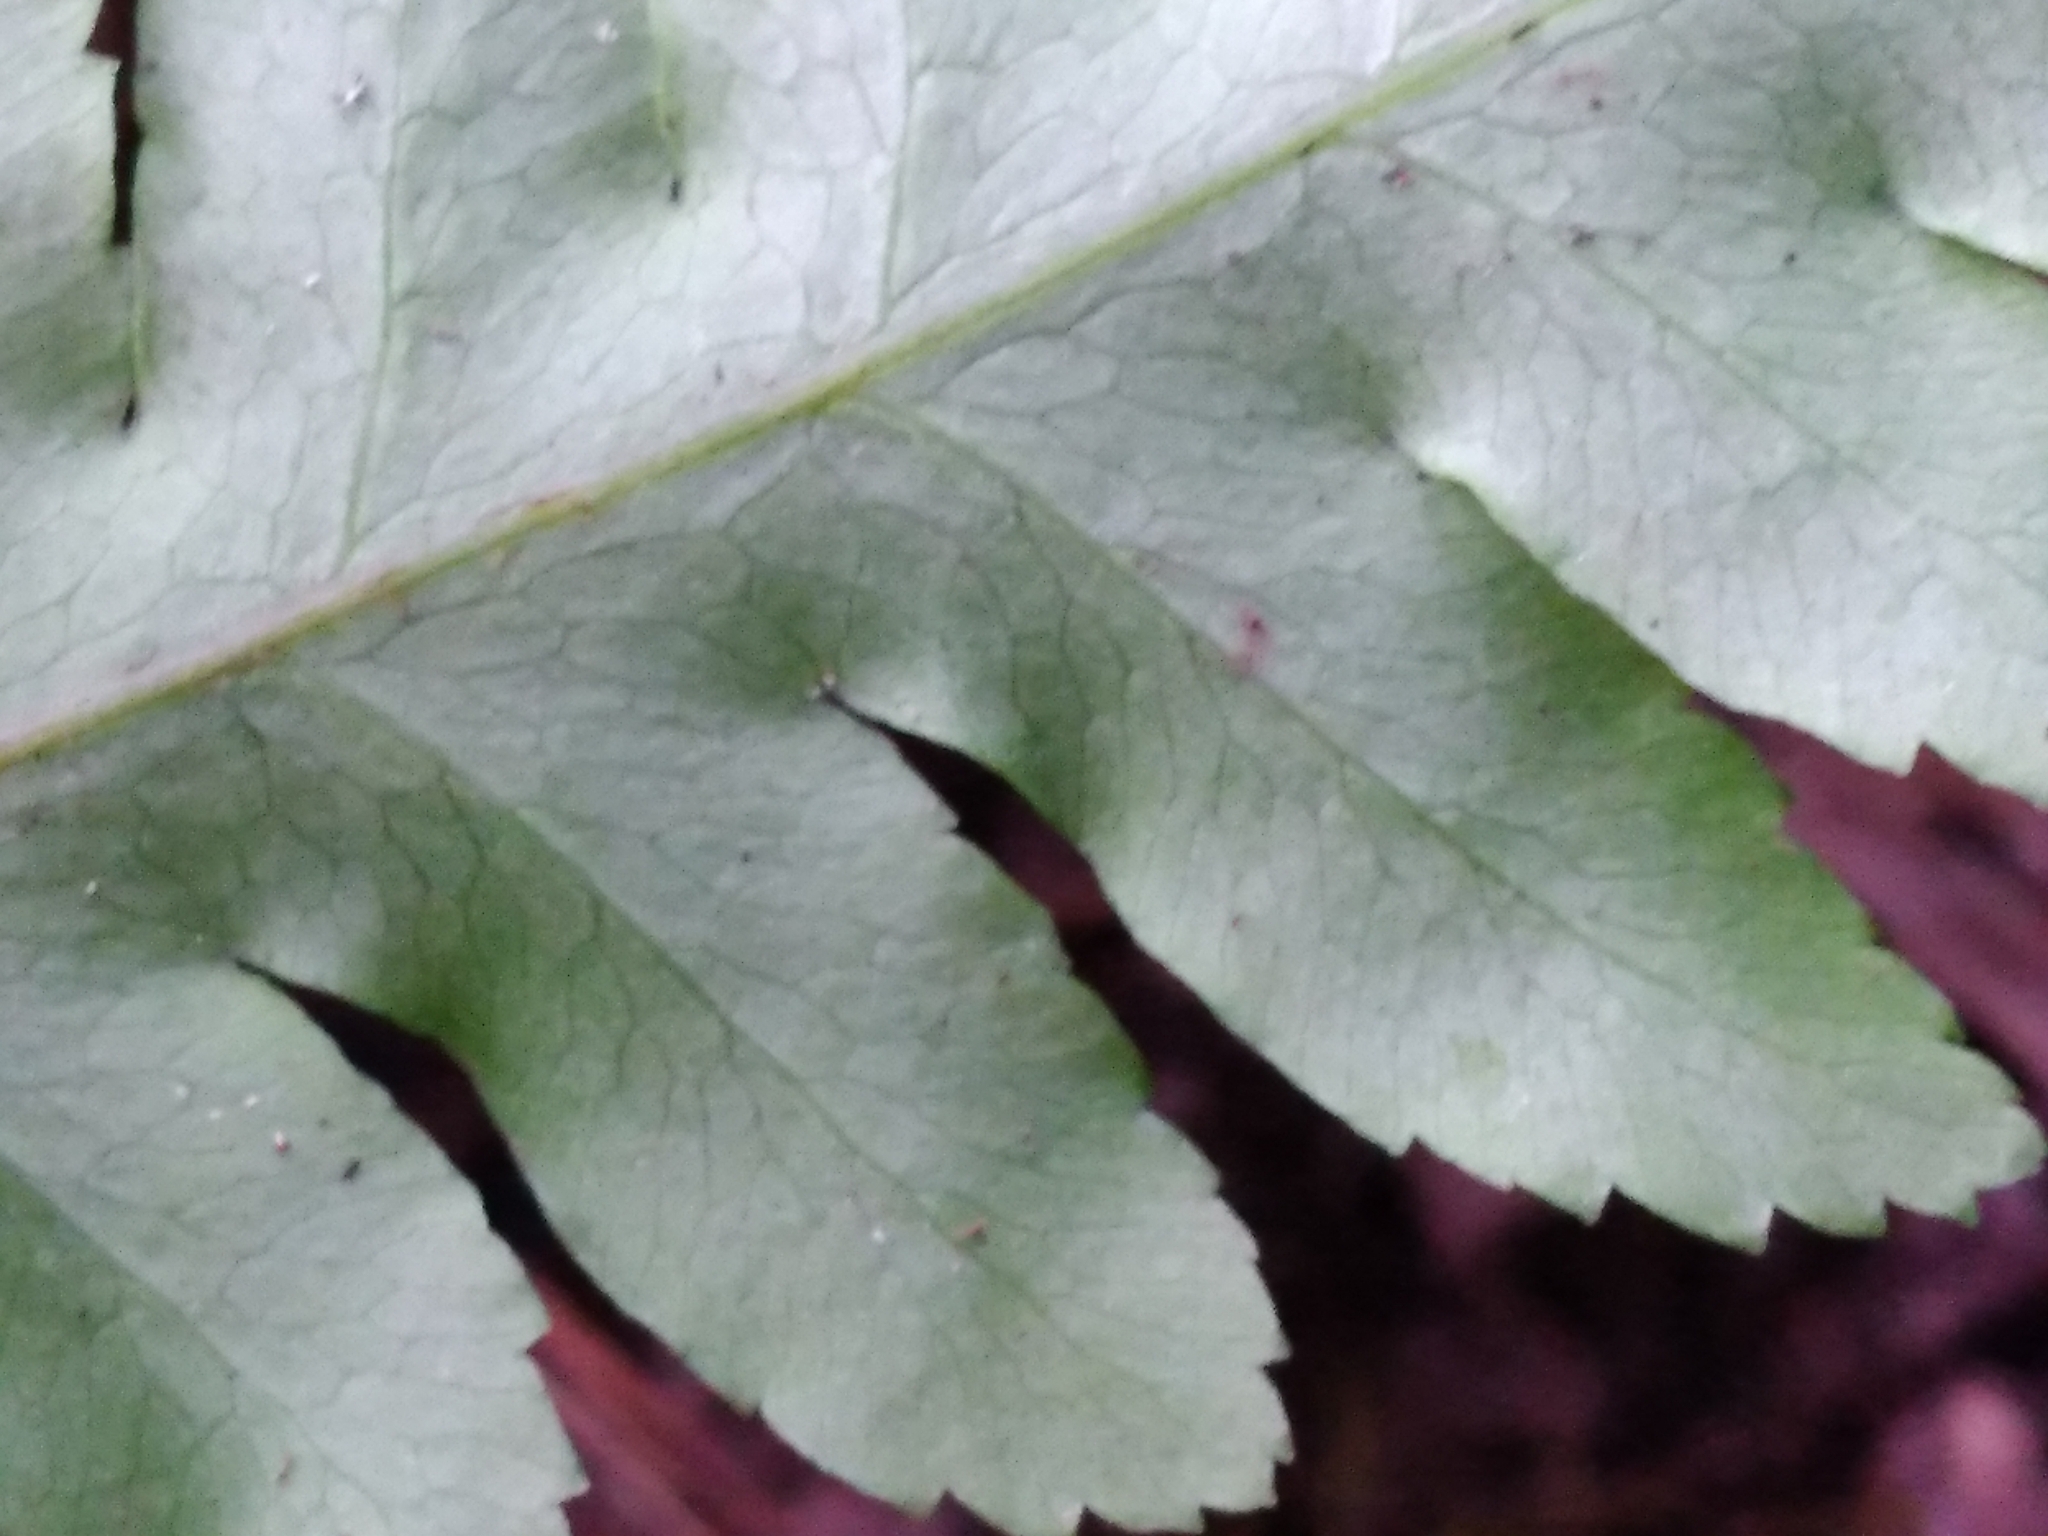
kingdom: Plantae
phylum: Tracheophyta
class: Polypodiopsida
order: Polypodiales
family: Pteridaceae
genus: Pteris
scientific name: Pteris zahlbruckneriana
